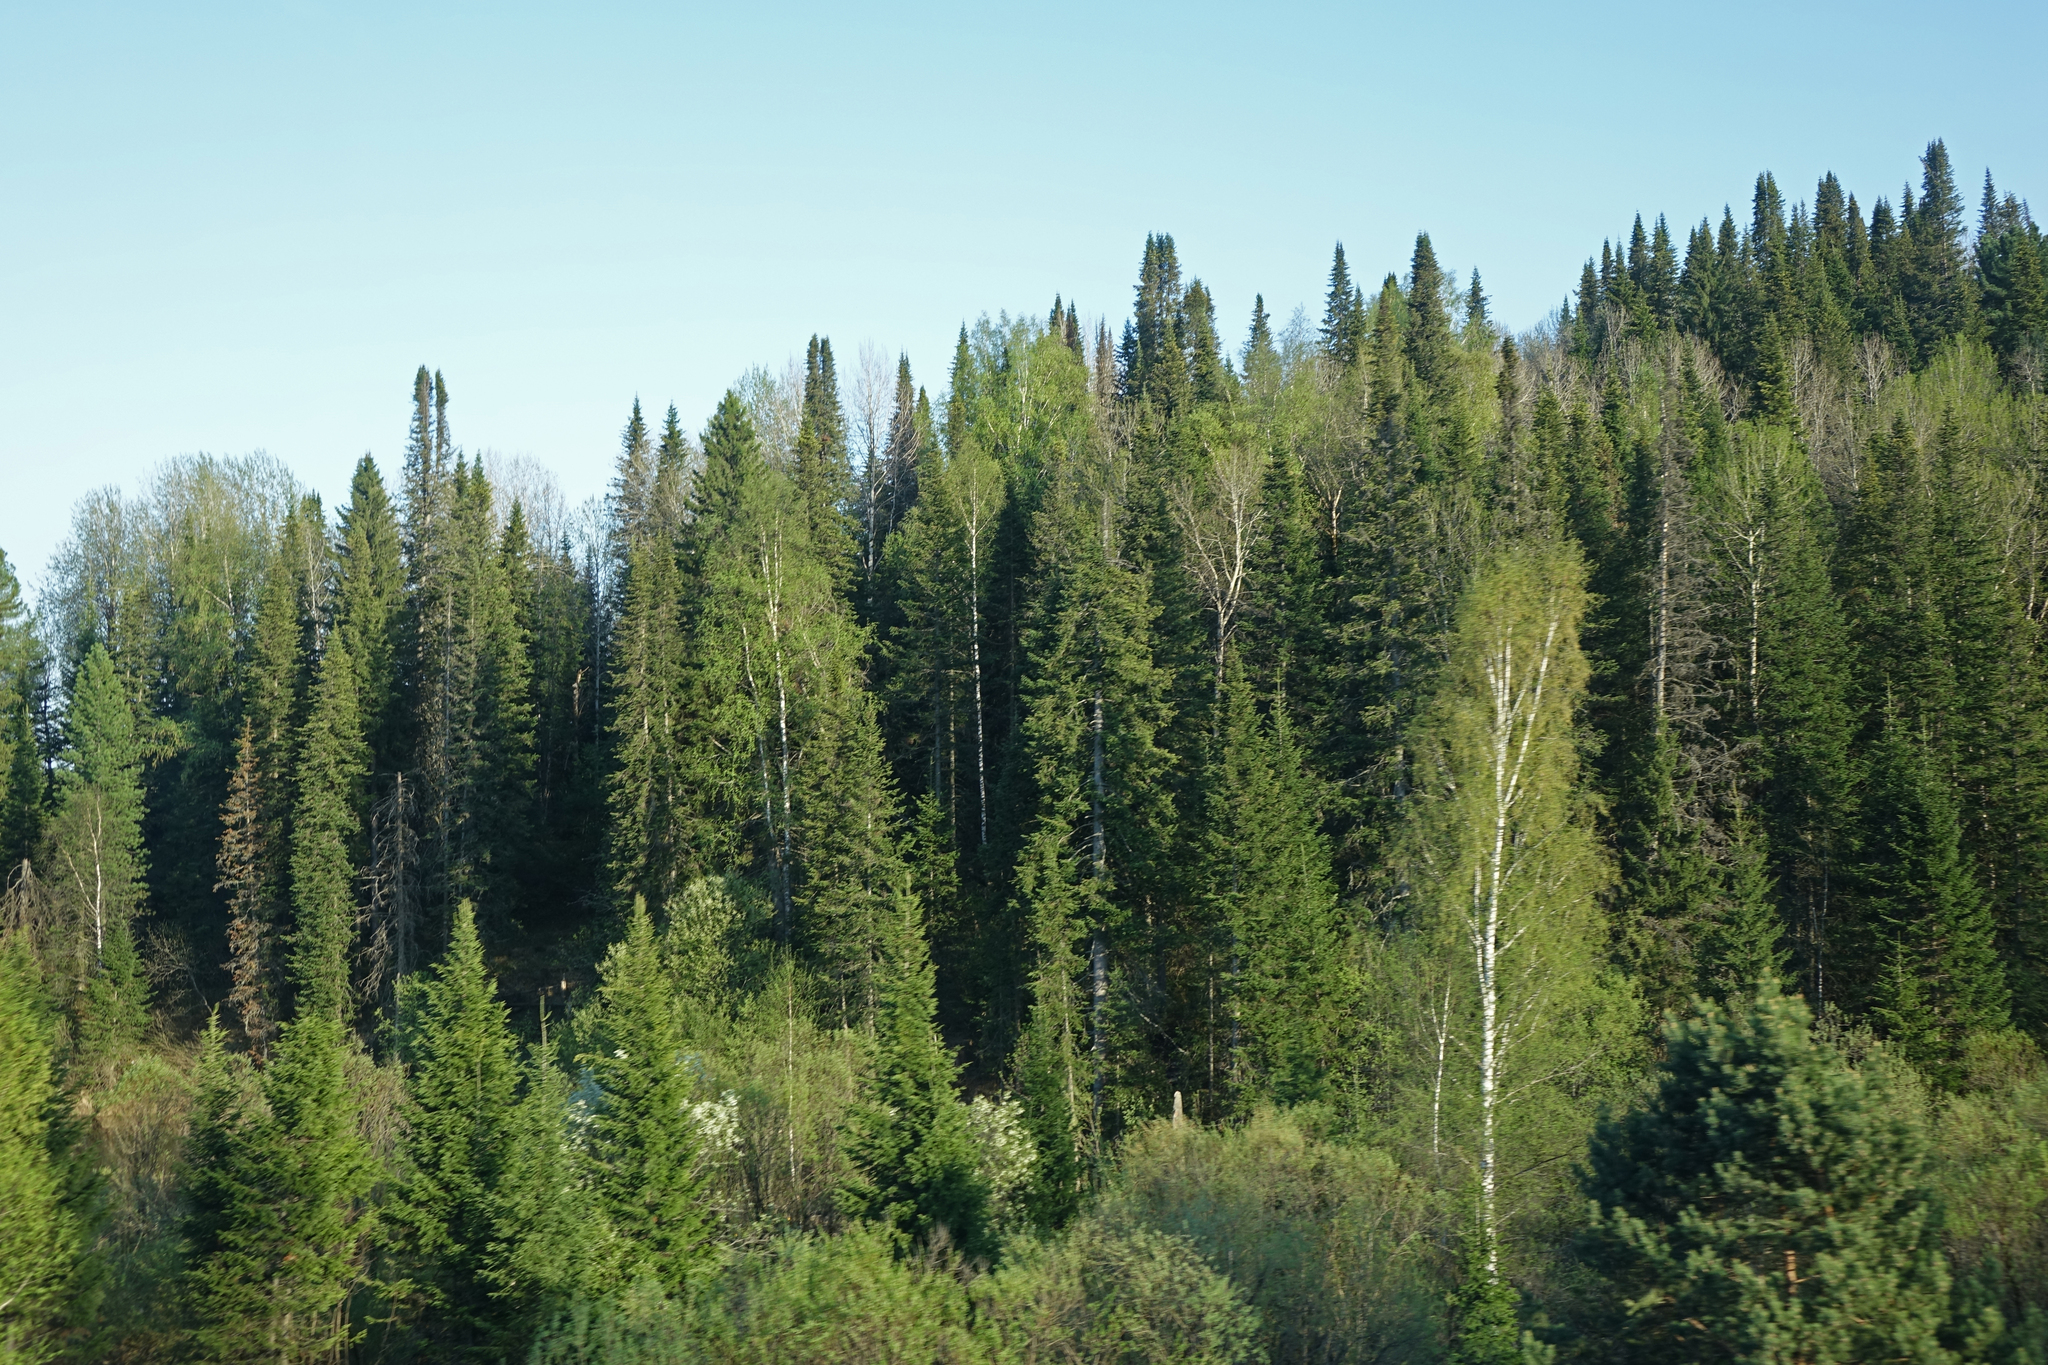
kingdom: Plantae
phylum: Tracheophyta
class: Magnoliopsida
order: Fagales
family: Betulaceae
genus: Betula
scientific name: Betula pendula
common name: Silver birch
